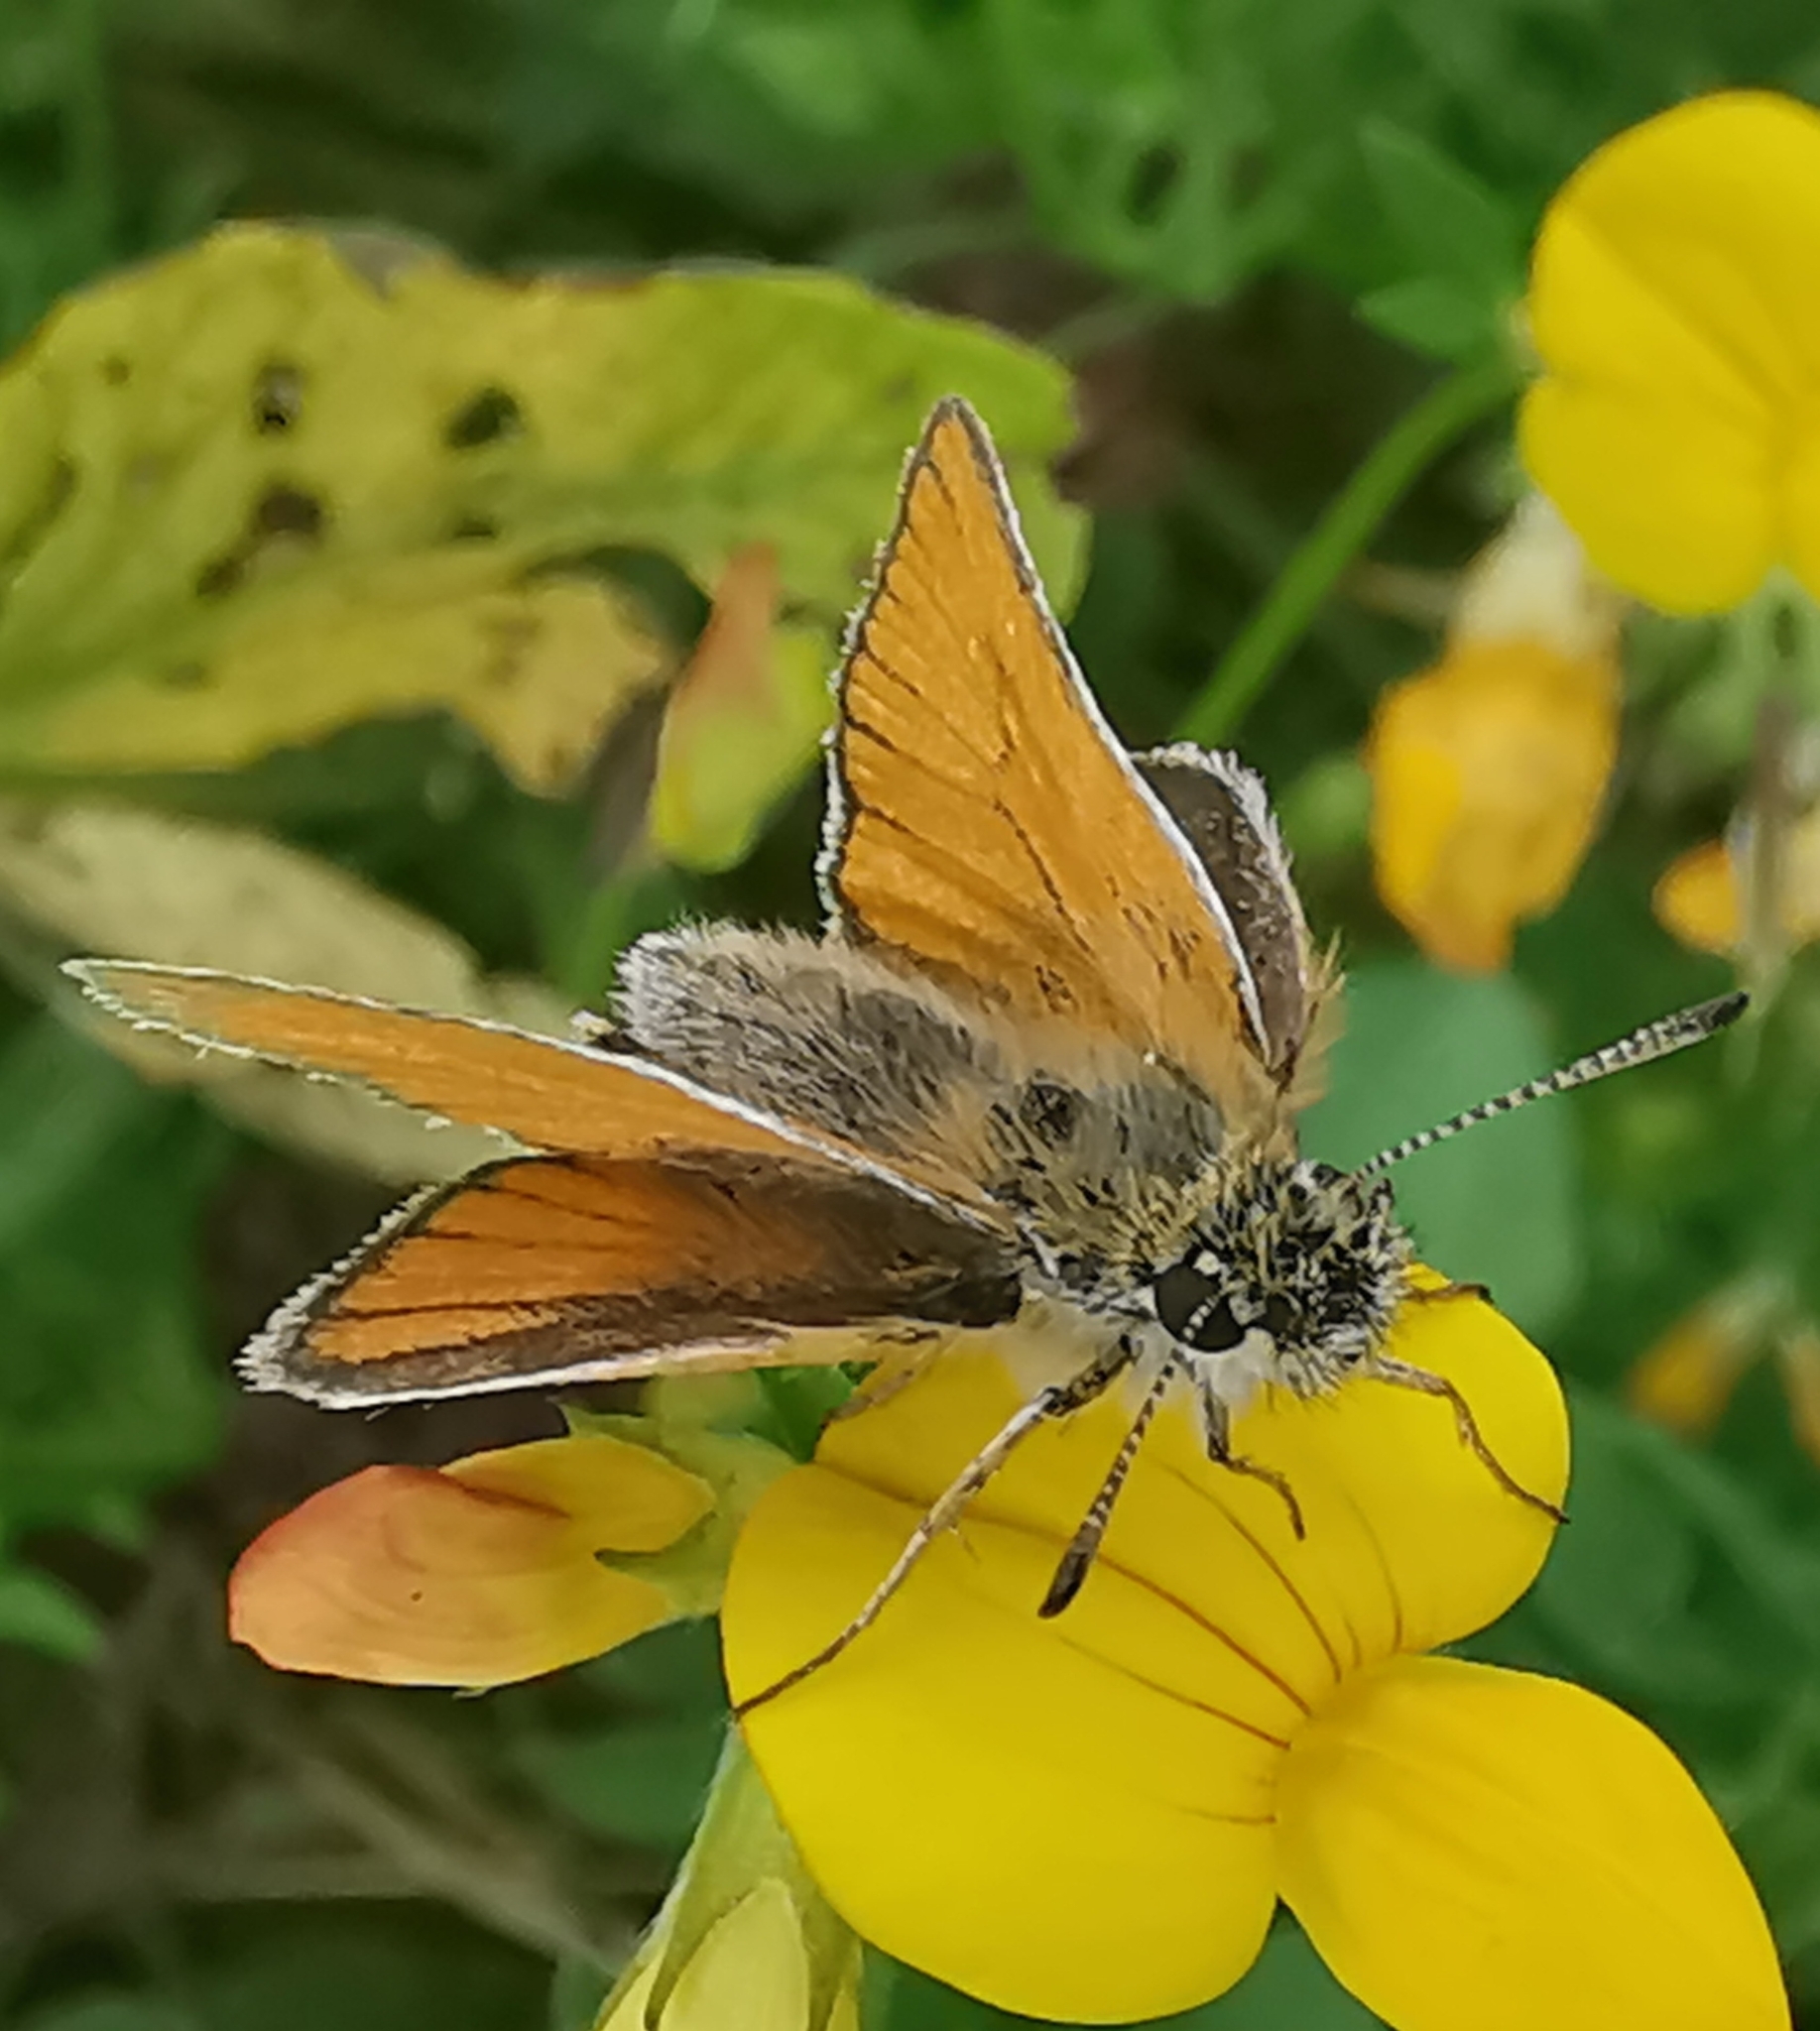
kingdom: Animalia
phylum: Arthropoda
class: Insecta
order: Lepidoptera
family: Hesperiidae
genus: Thymelicus
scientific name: Thymelicus lineola
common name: Essex skipper
